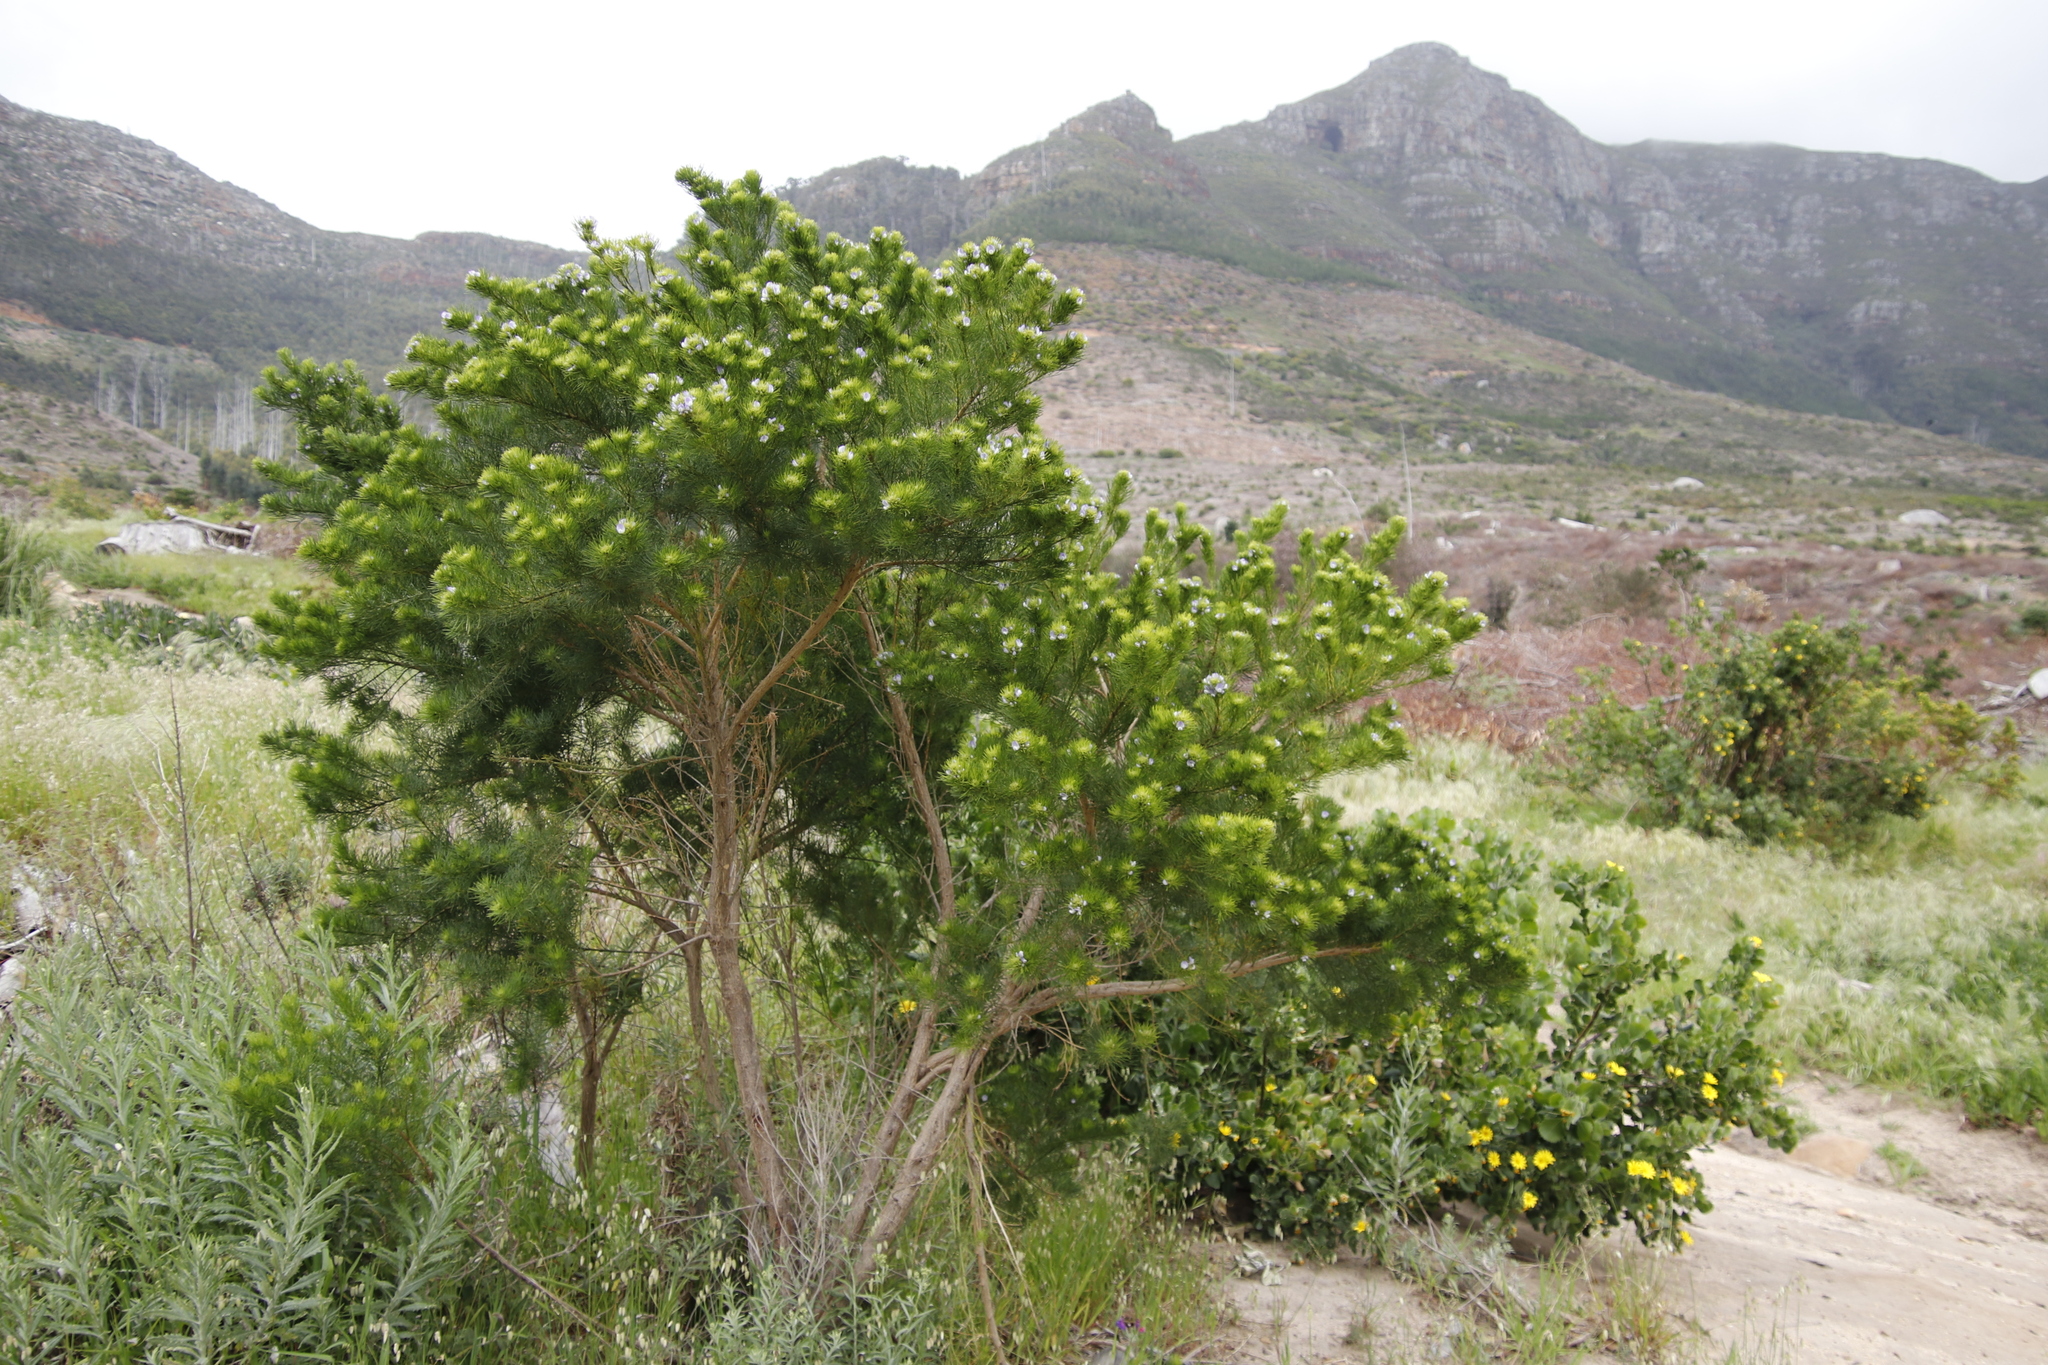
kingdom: Plantae
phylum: Tracheophyta
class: Magnoliopsida
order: Fabales
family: Fabaceae
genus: Psoralea
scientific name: Psoralea pinnata
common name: African scurfpea
